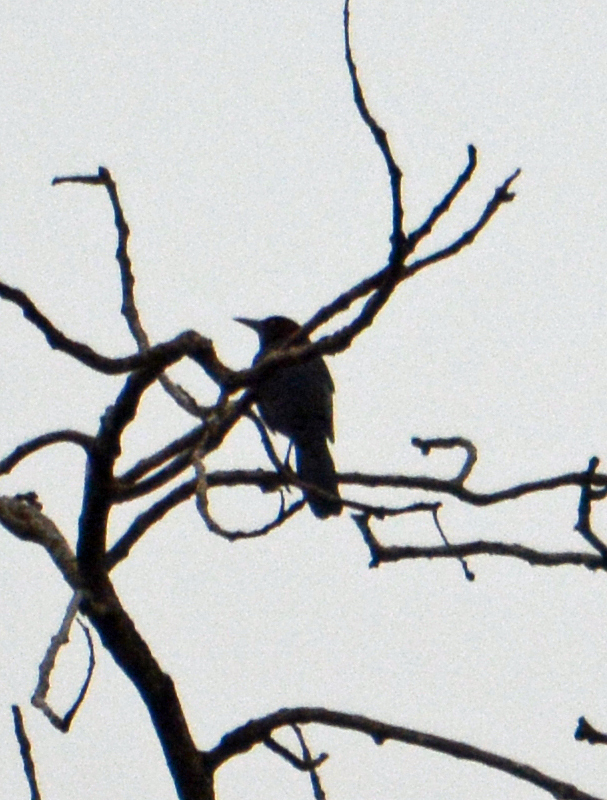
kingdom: Animalia
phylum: Chordata
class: Aves
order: Passeriformes
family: Icteridae
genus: Quiscalus
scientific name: Quiscalus mexicanus
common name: Great-tailed grackle
